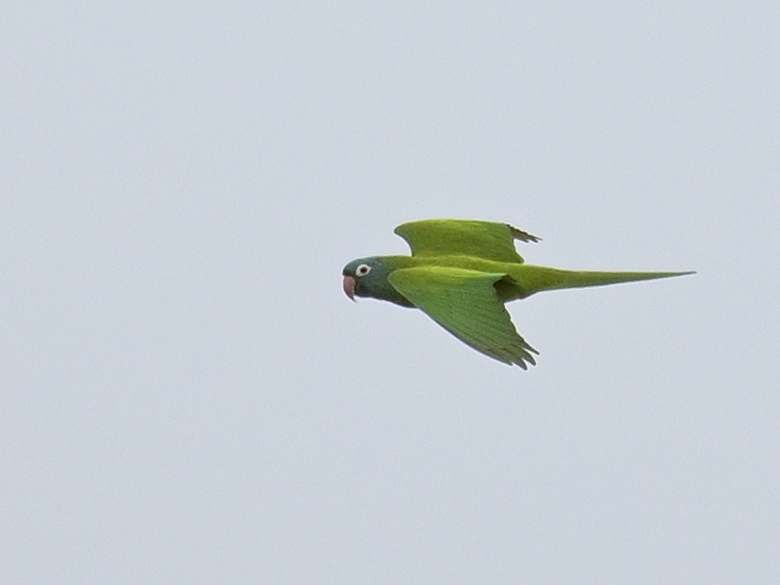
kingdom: Animalia
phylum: Chordata
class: Aves
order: Psittaciformes
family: Psittacidae
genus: Aratinga
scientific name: Aratinga acuticaudata
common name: Blue-crowned parakeet
